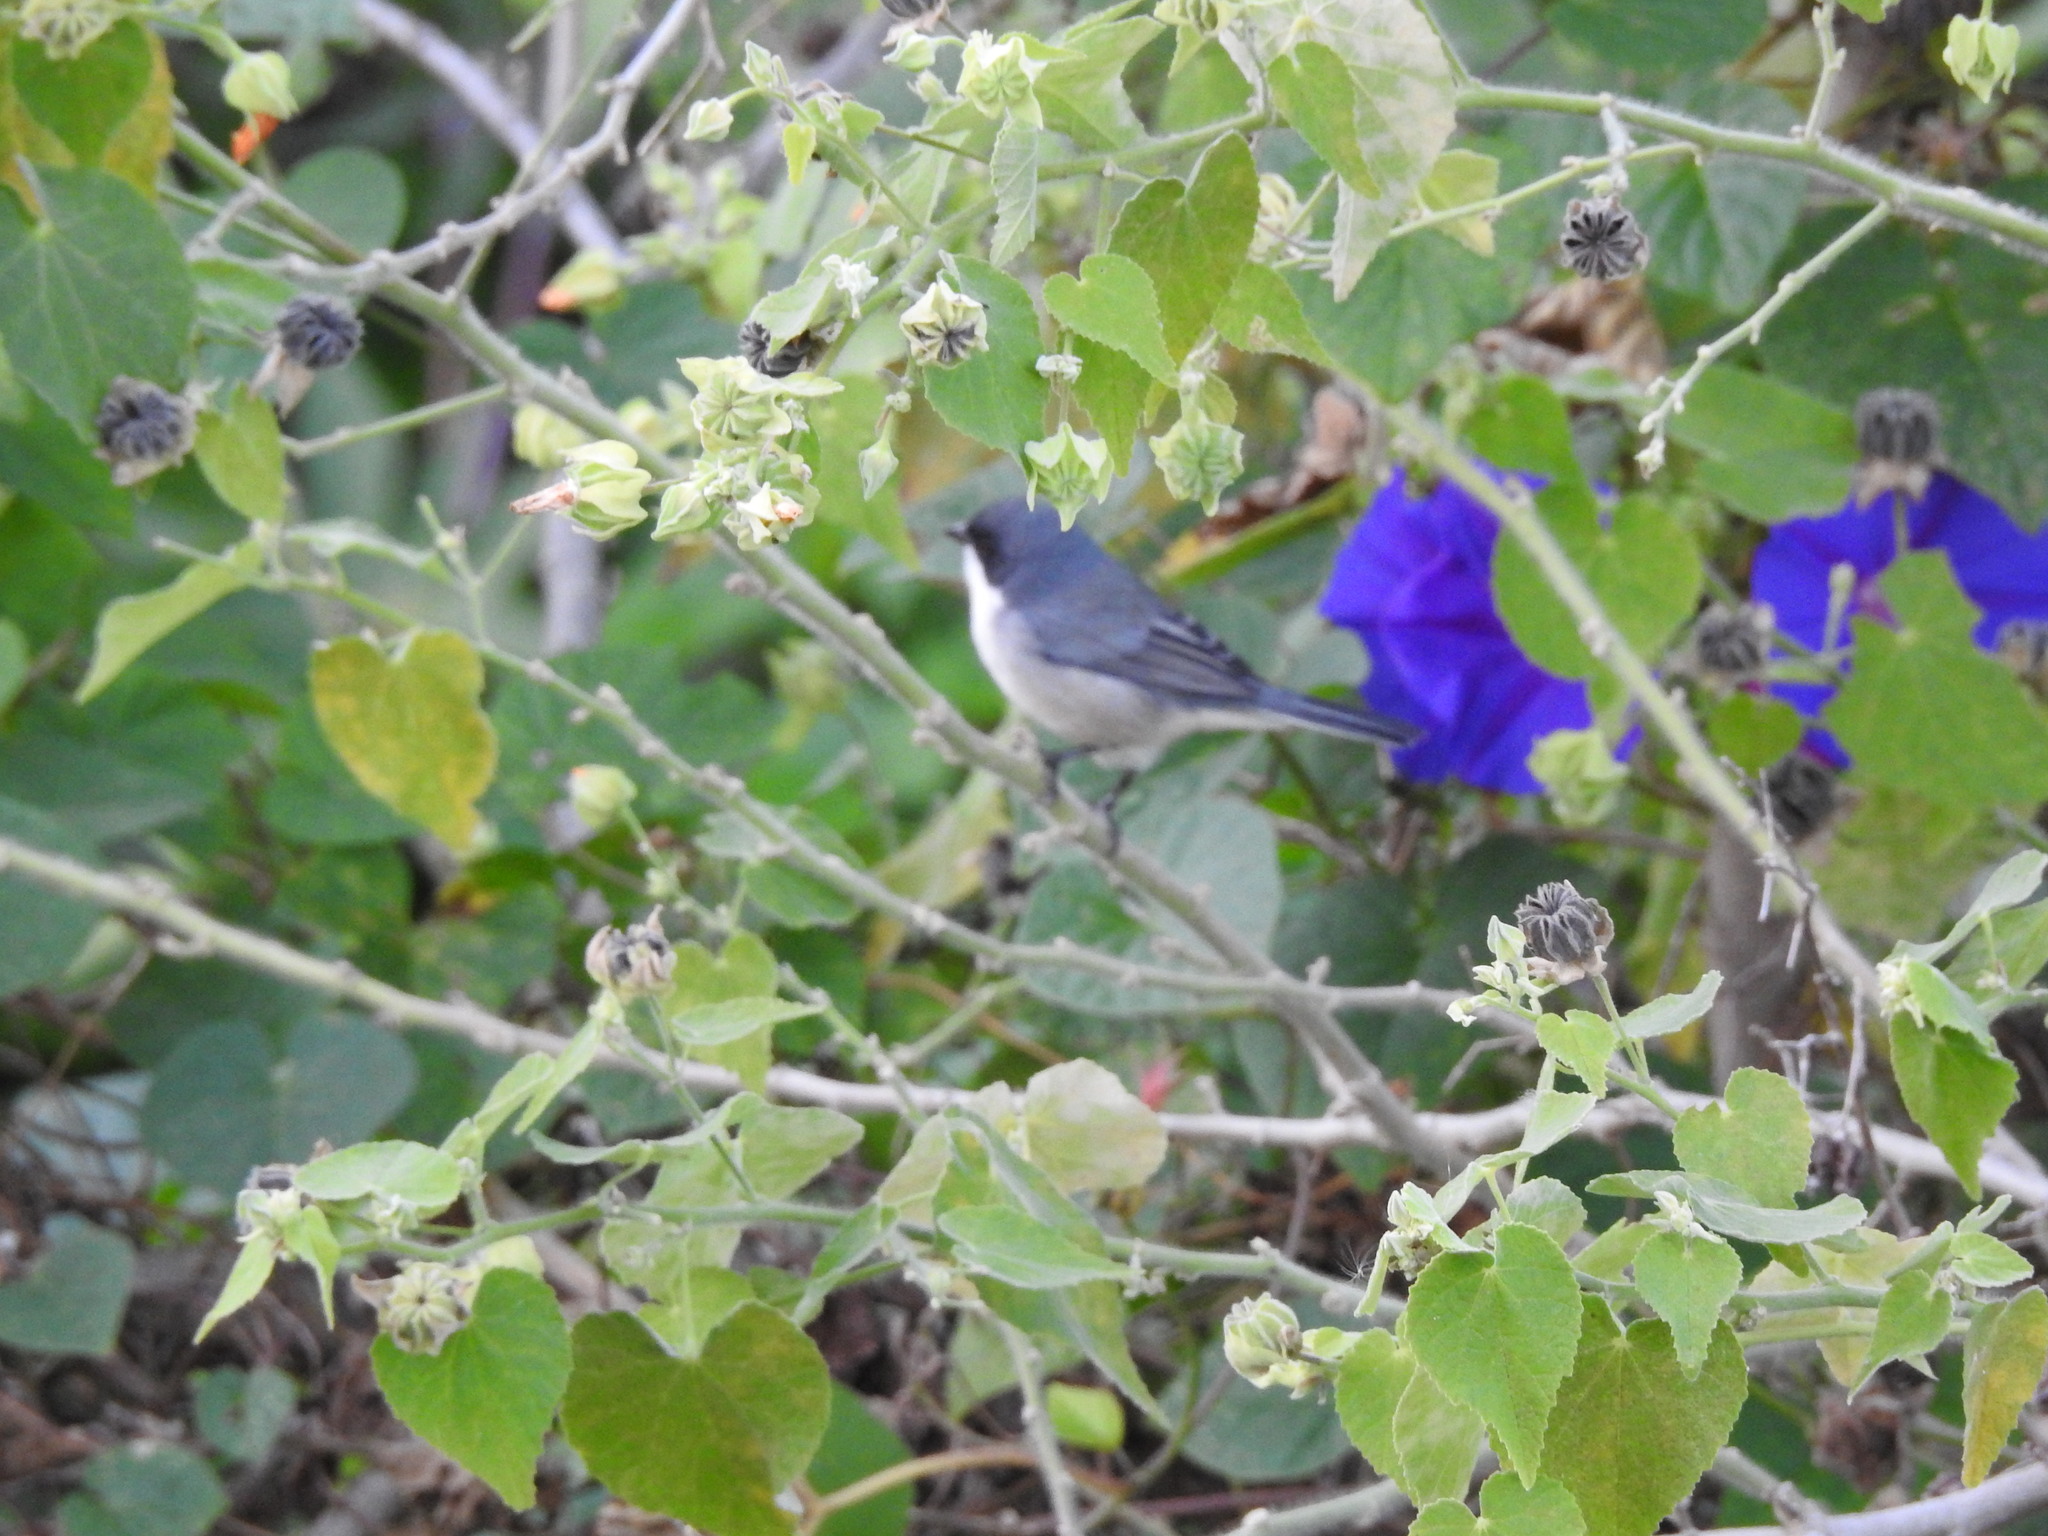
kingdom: Animalia
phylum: Chordata
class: Aves
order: Passeriformes
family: Polioptilidae
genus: Polioptila
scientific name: Polioptila dumicola
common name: Masked gnatcatcher
